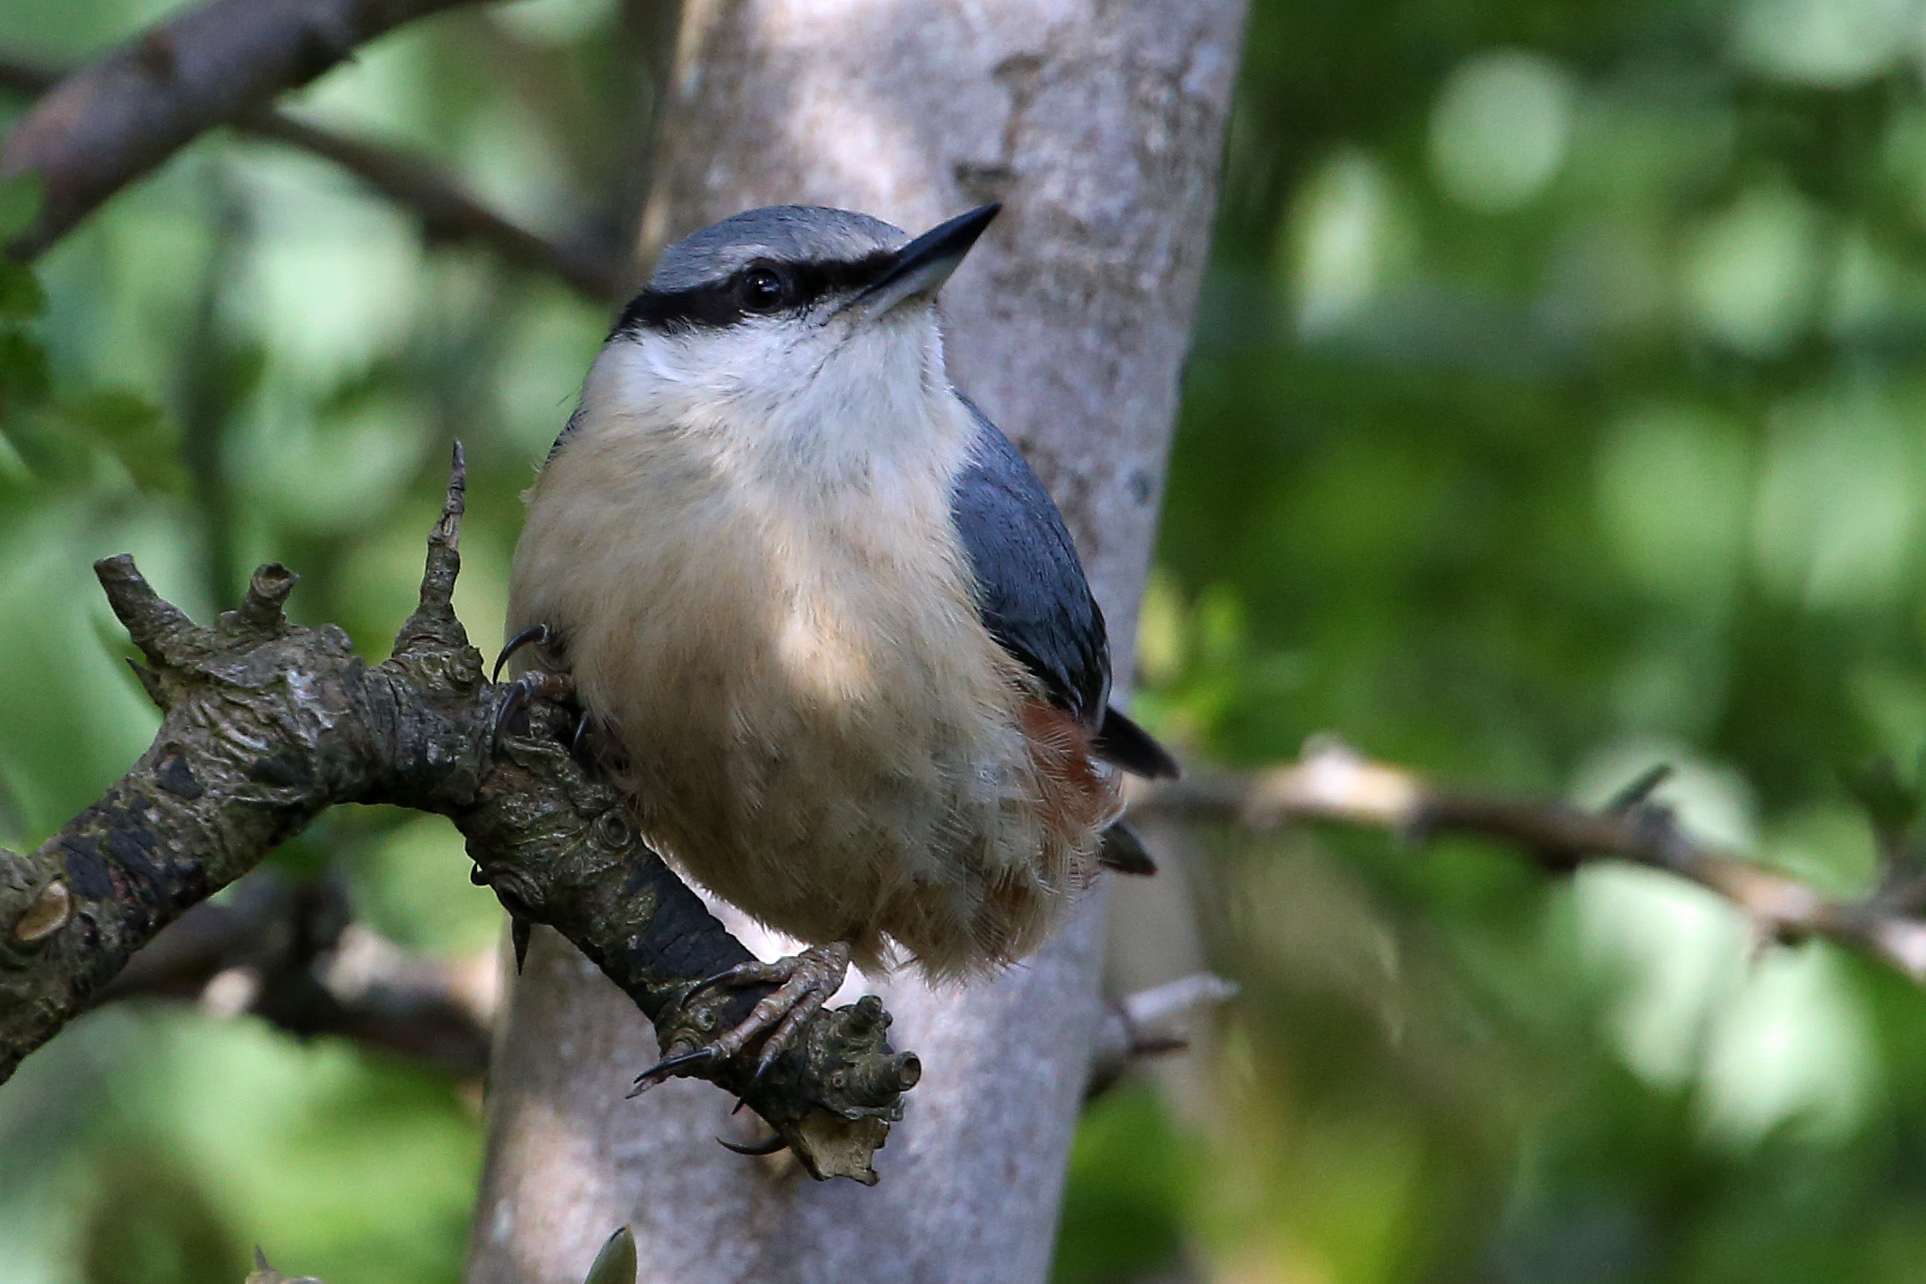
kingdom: Animalia
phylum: Chordata
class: Aves
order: Passeriformes
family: Sittidae
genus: Sitta
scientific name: Sitta europaea
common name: Eurasian nuthatch
